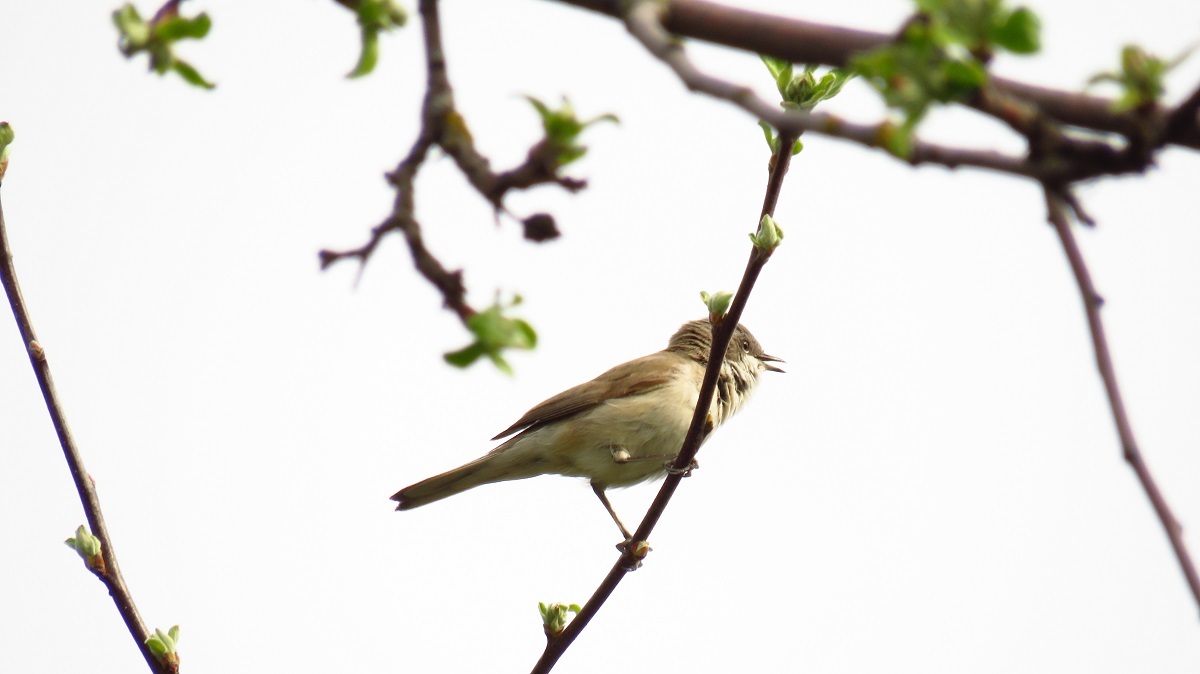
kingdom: Animalia
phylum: Chordata
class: Aves
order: Passeriformes
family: Sylviidae
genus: Sylvia
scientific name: Sylvia curruca
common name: Lesser whitethroat
